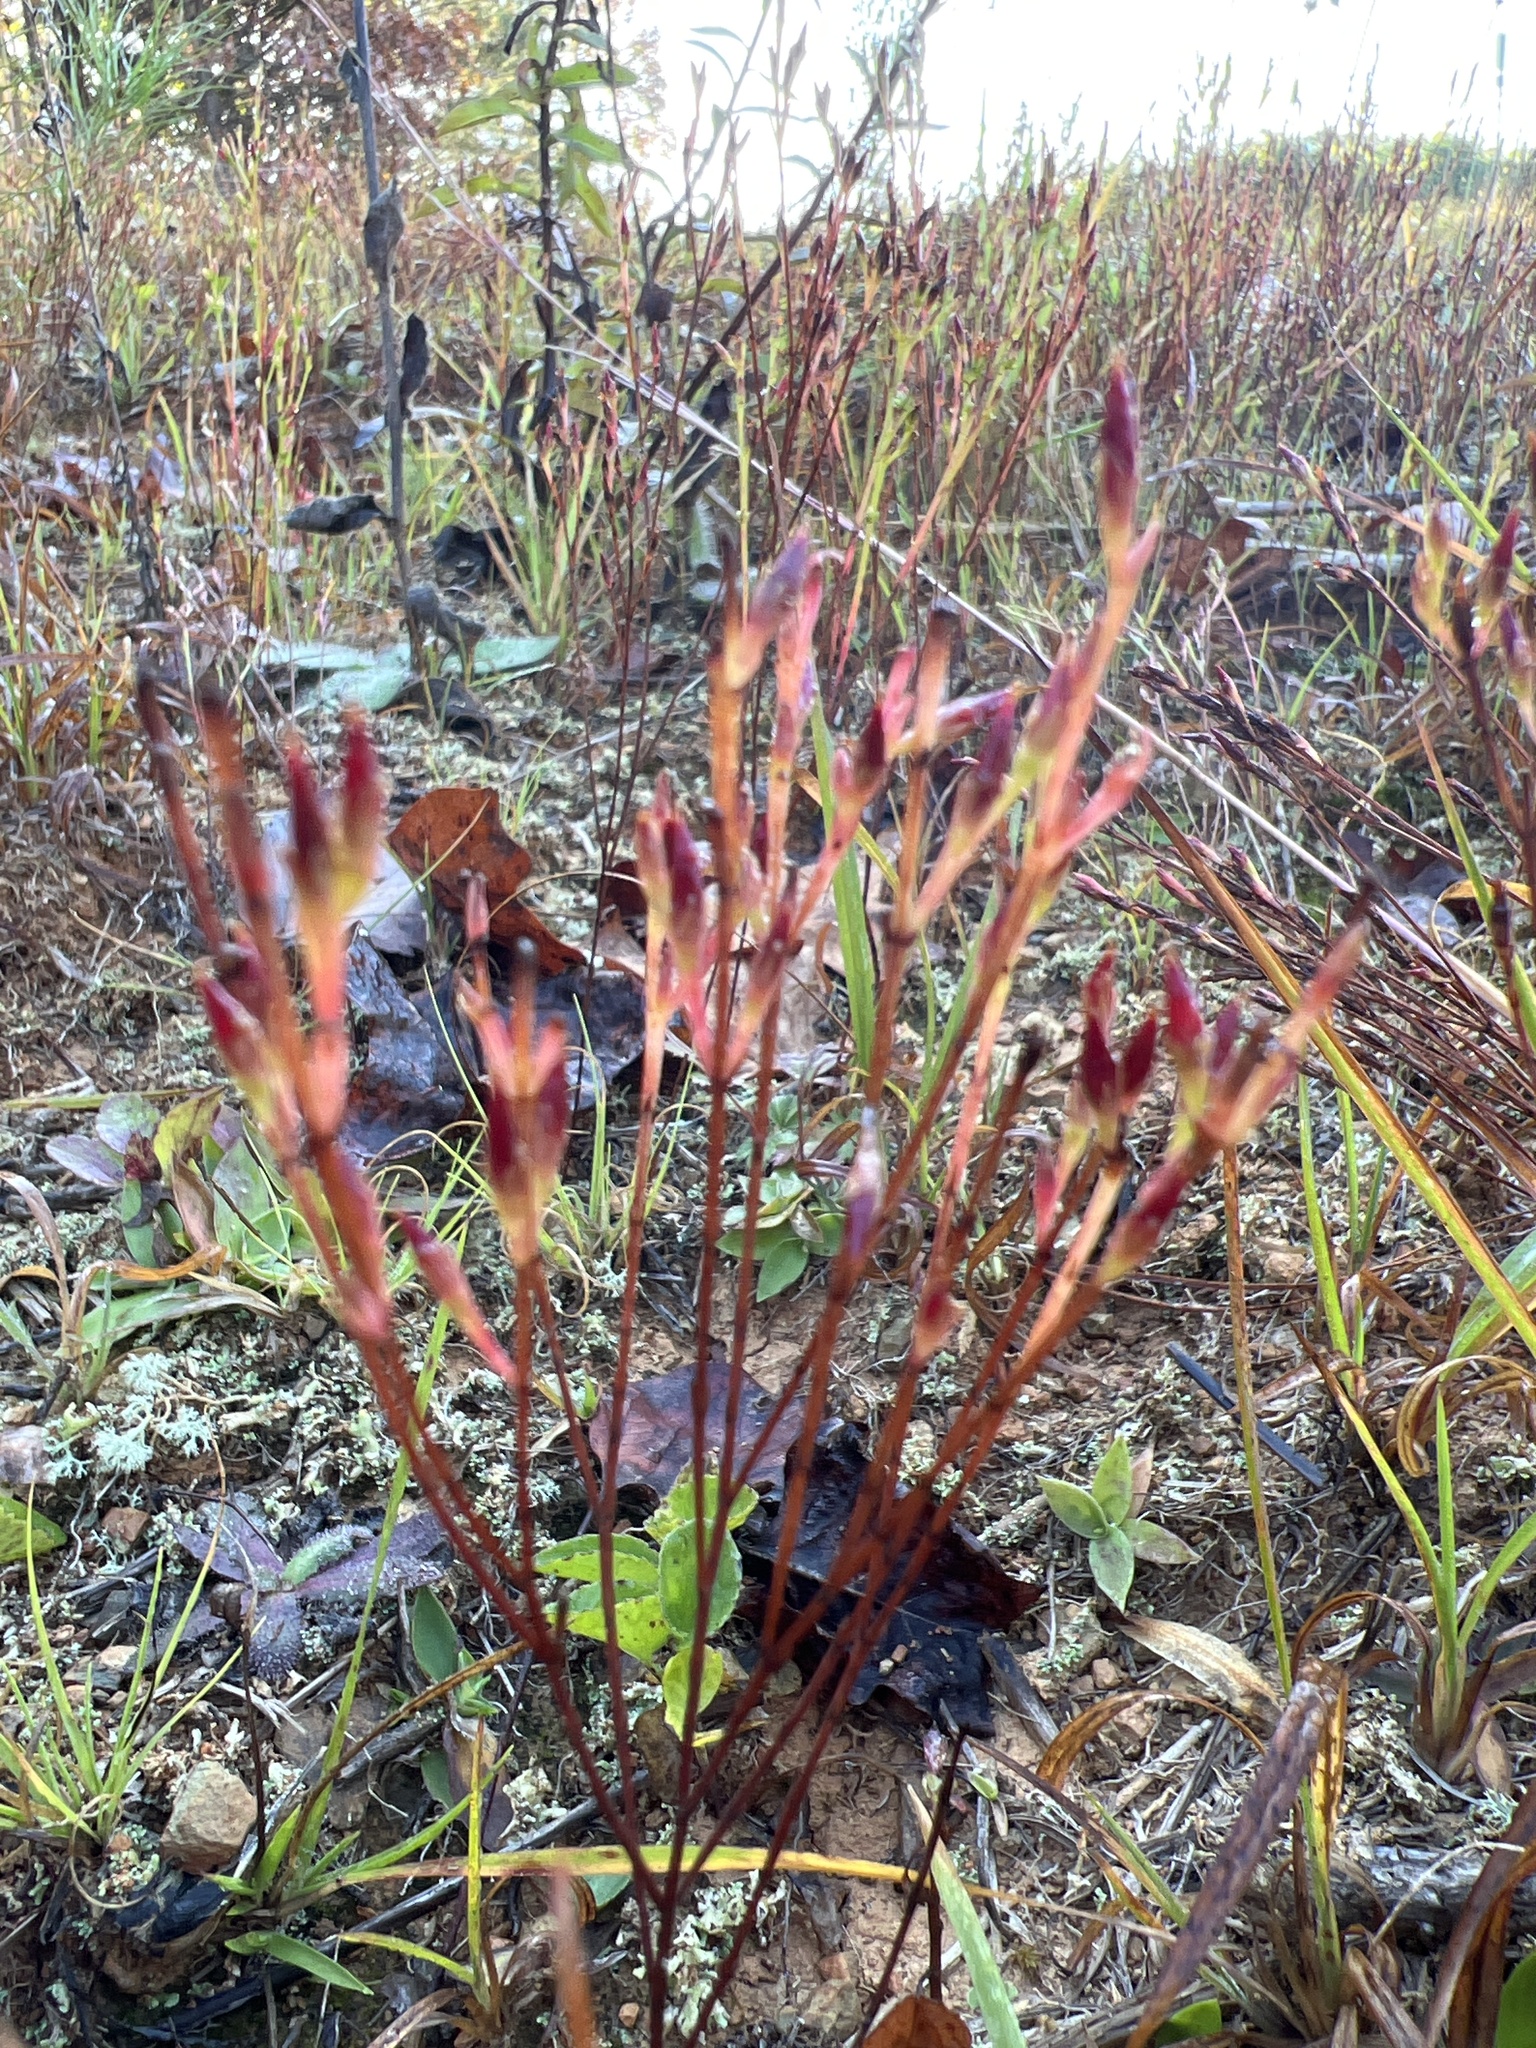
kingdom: Plantae
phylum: Tracheophyta
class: Magnoliopsida
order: Malpighiales
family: Hypericaceae
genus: Hypericum
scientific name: Hypericum gentianoides
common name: Gentian-leaved st. john's-wort
